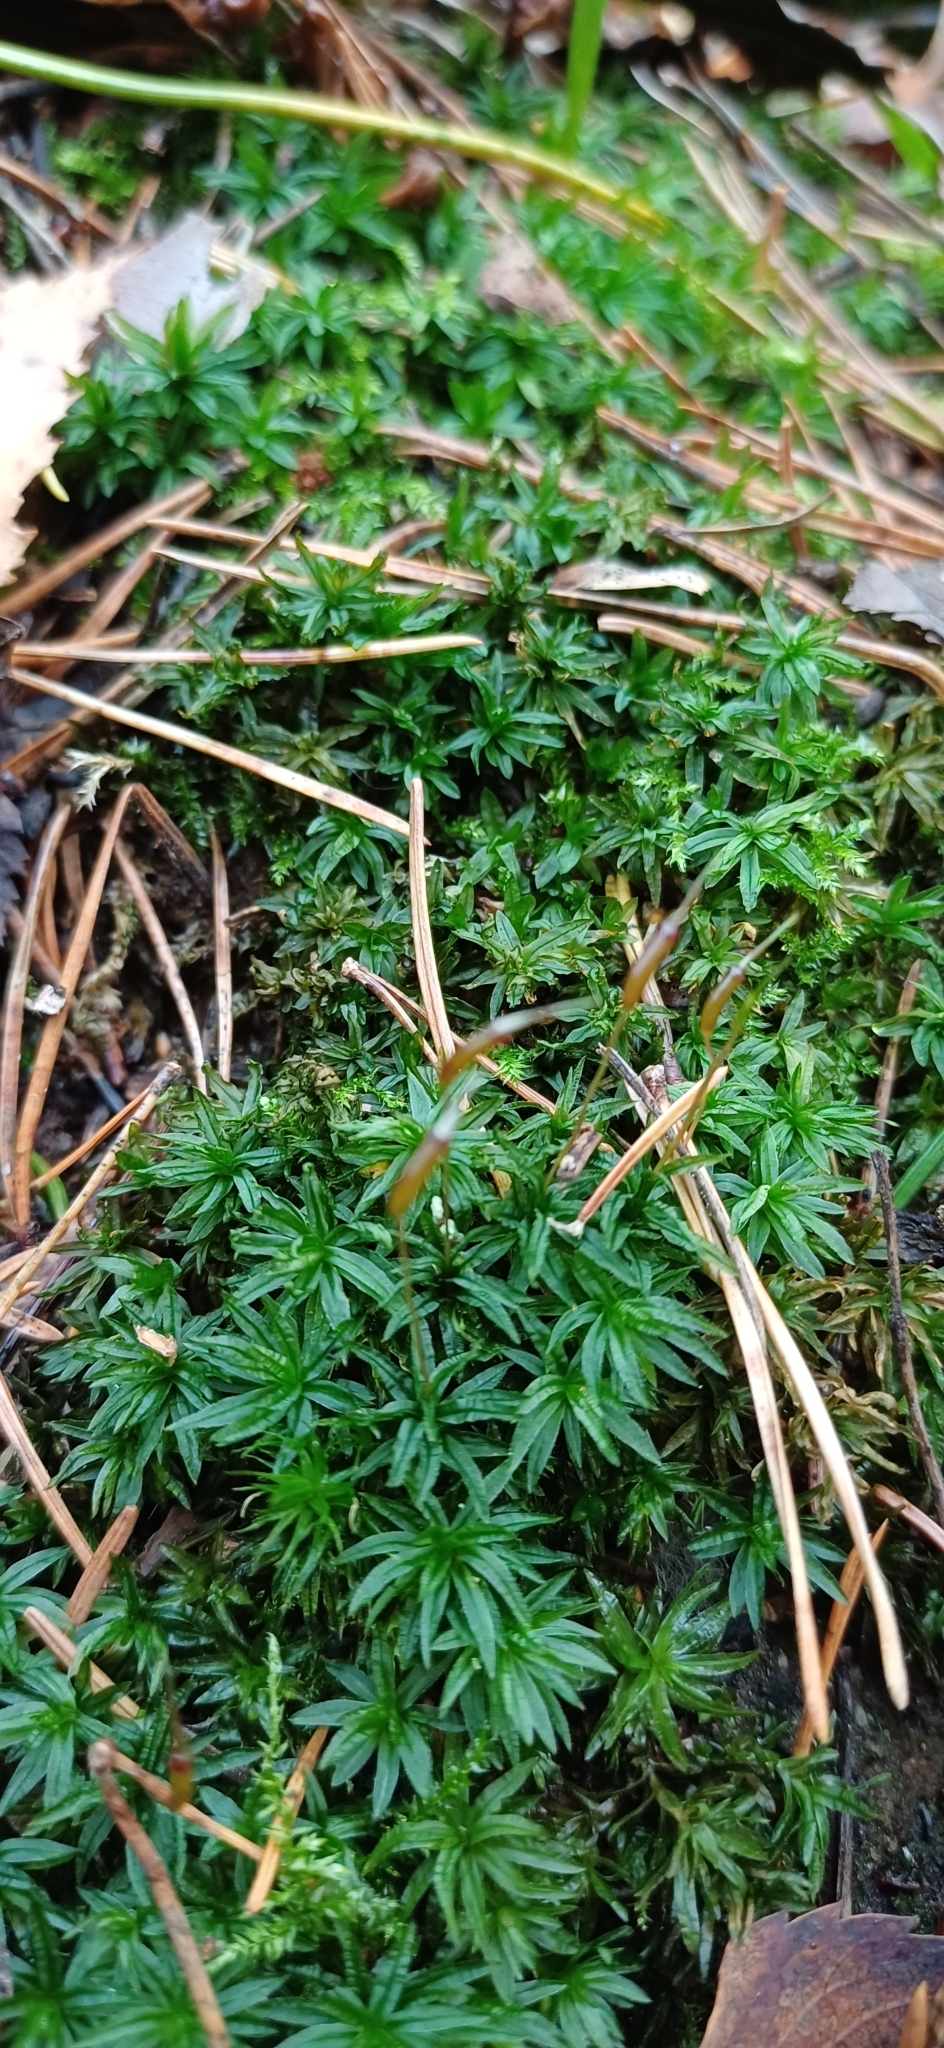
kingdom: Plantae
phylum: Bryophyta
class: Polytrichopsida
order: Polytrichales
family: Polytrichaceae
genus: Atrichum
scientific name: Atrichum undulatum
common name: Common smoothcap
